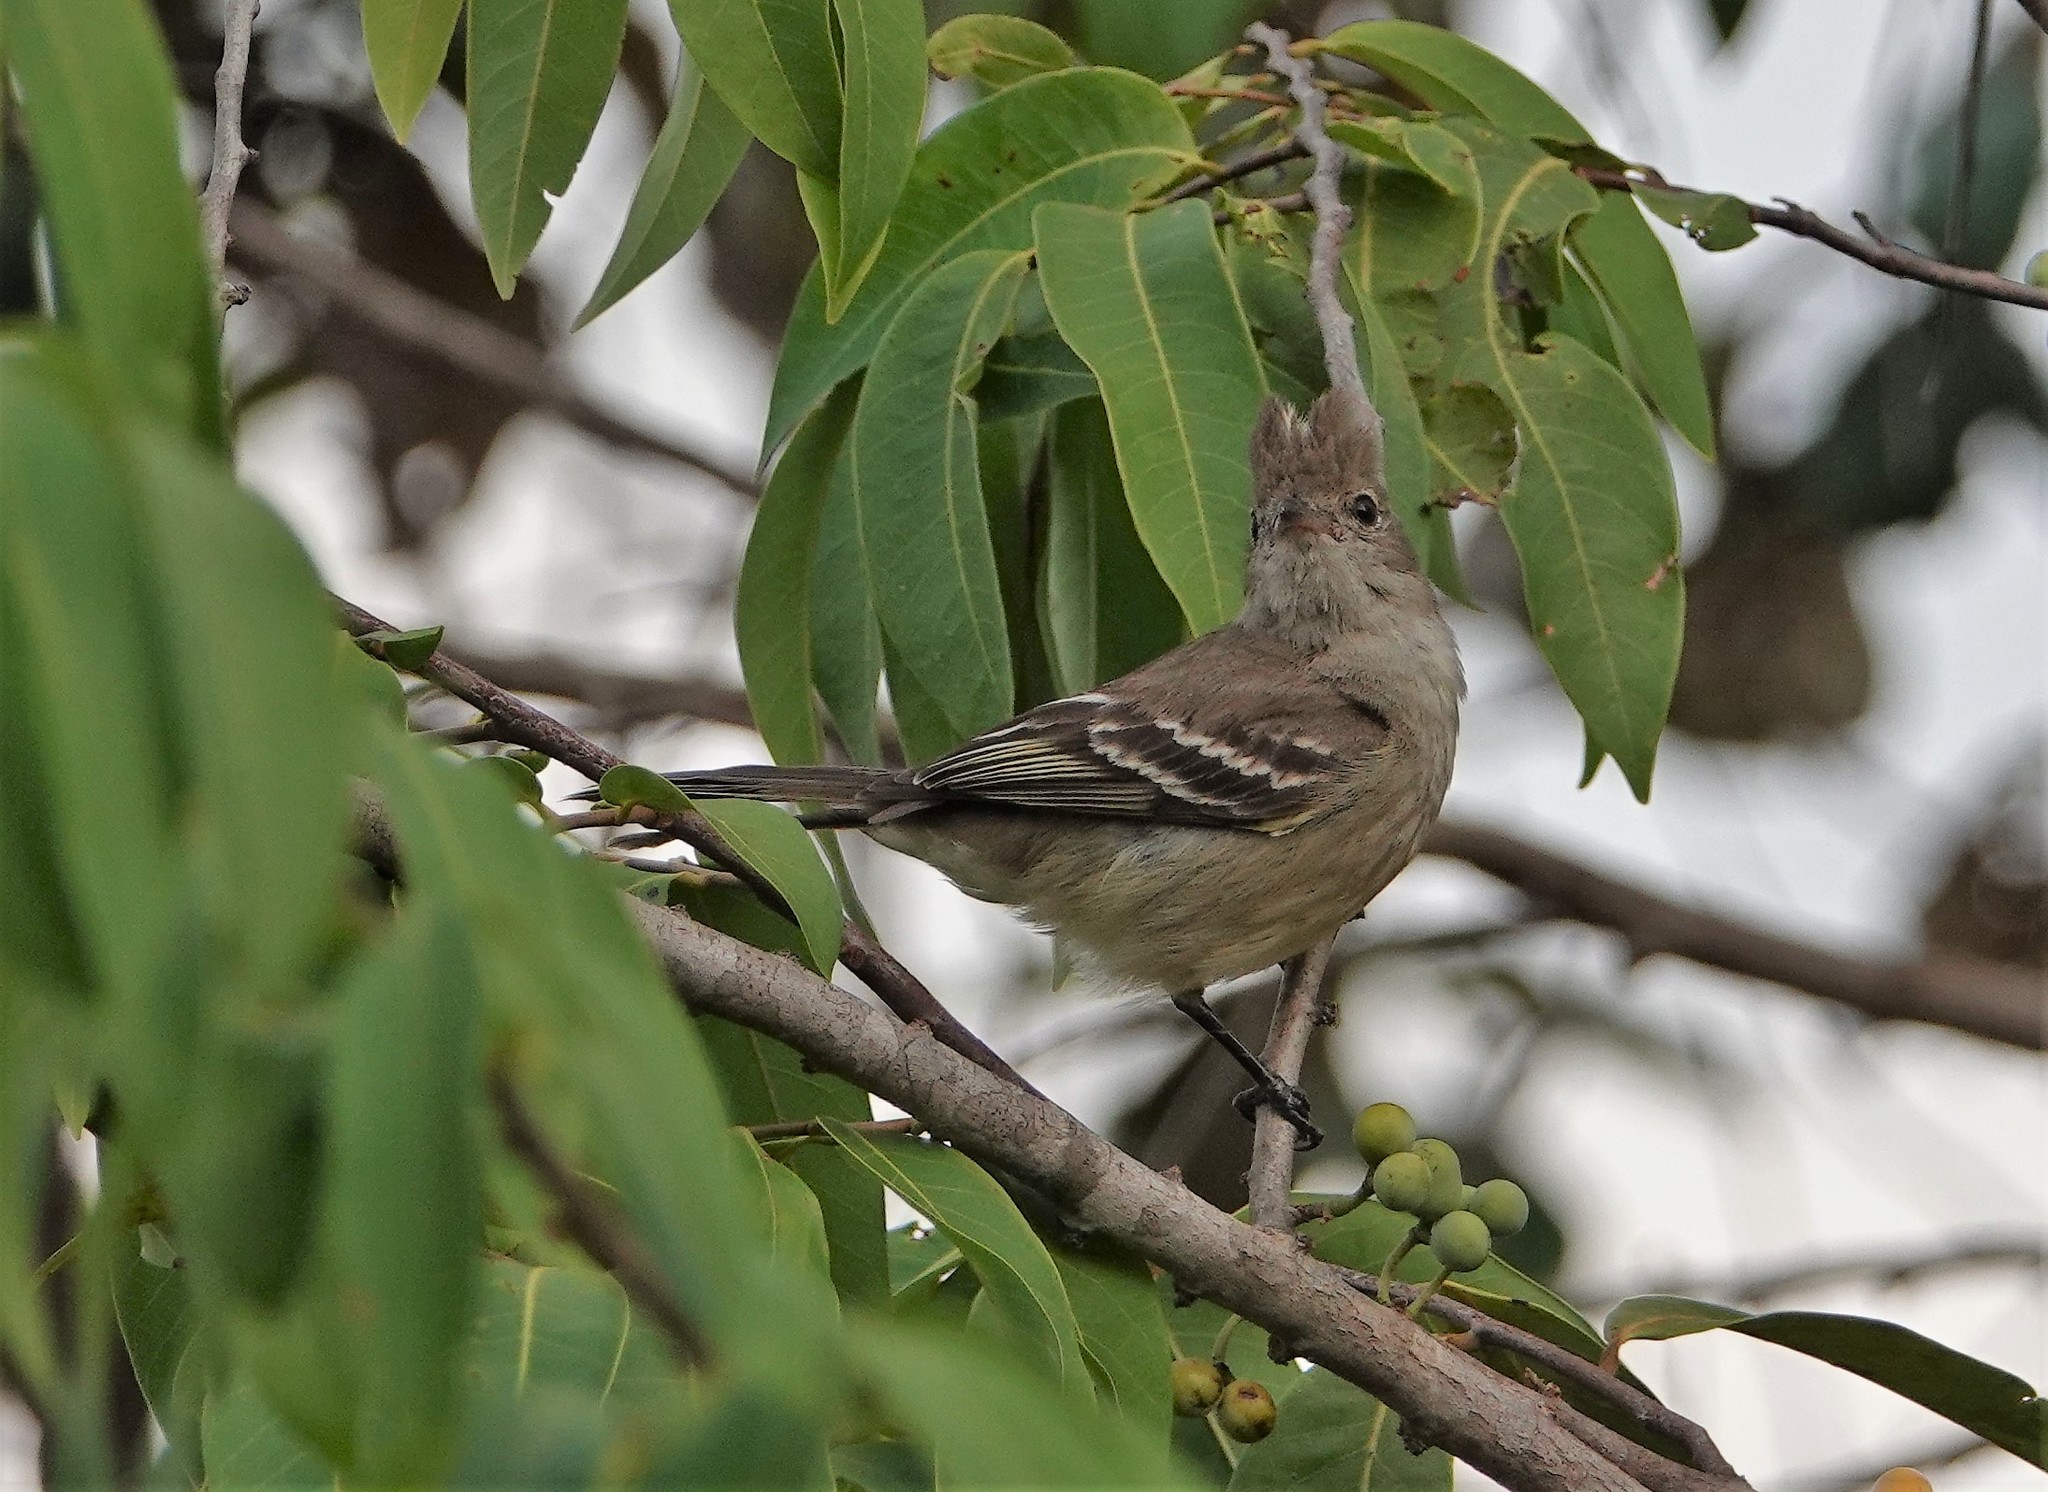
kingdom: Animalia
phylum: Chordata
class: Aves
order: Passeriformes
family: Tyrannidae
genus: Elaenia
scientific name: Elaenia flavogaster
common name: Yellow-bellied elaenia
